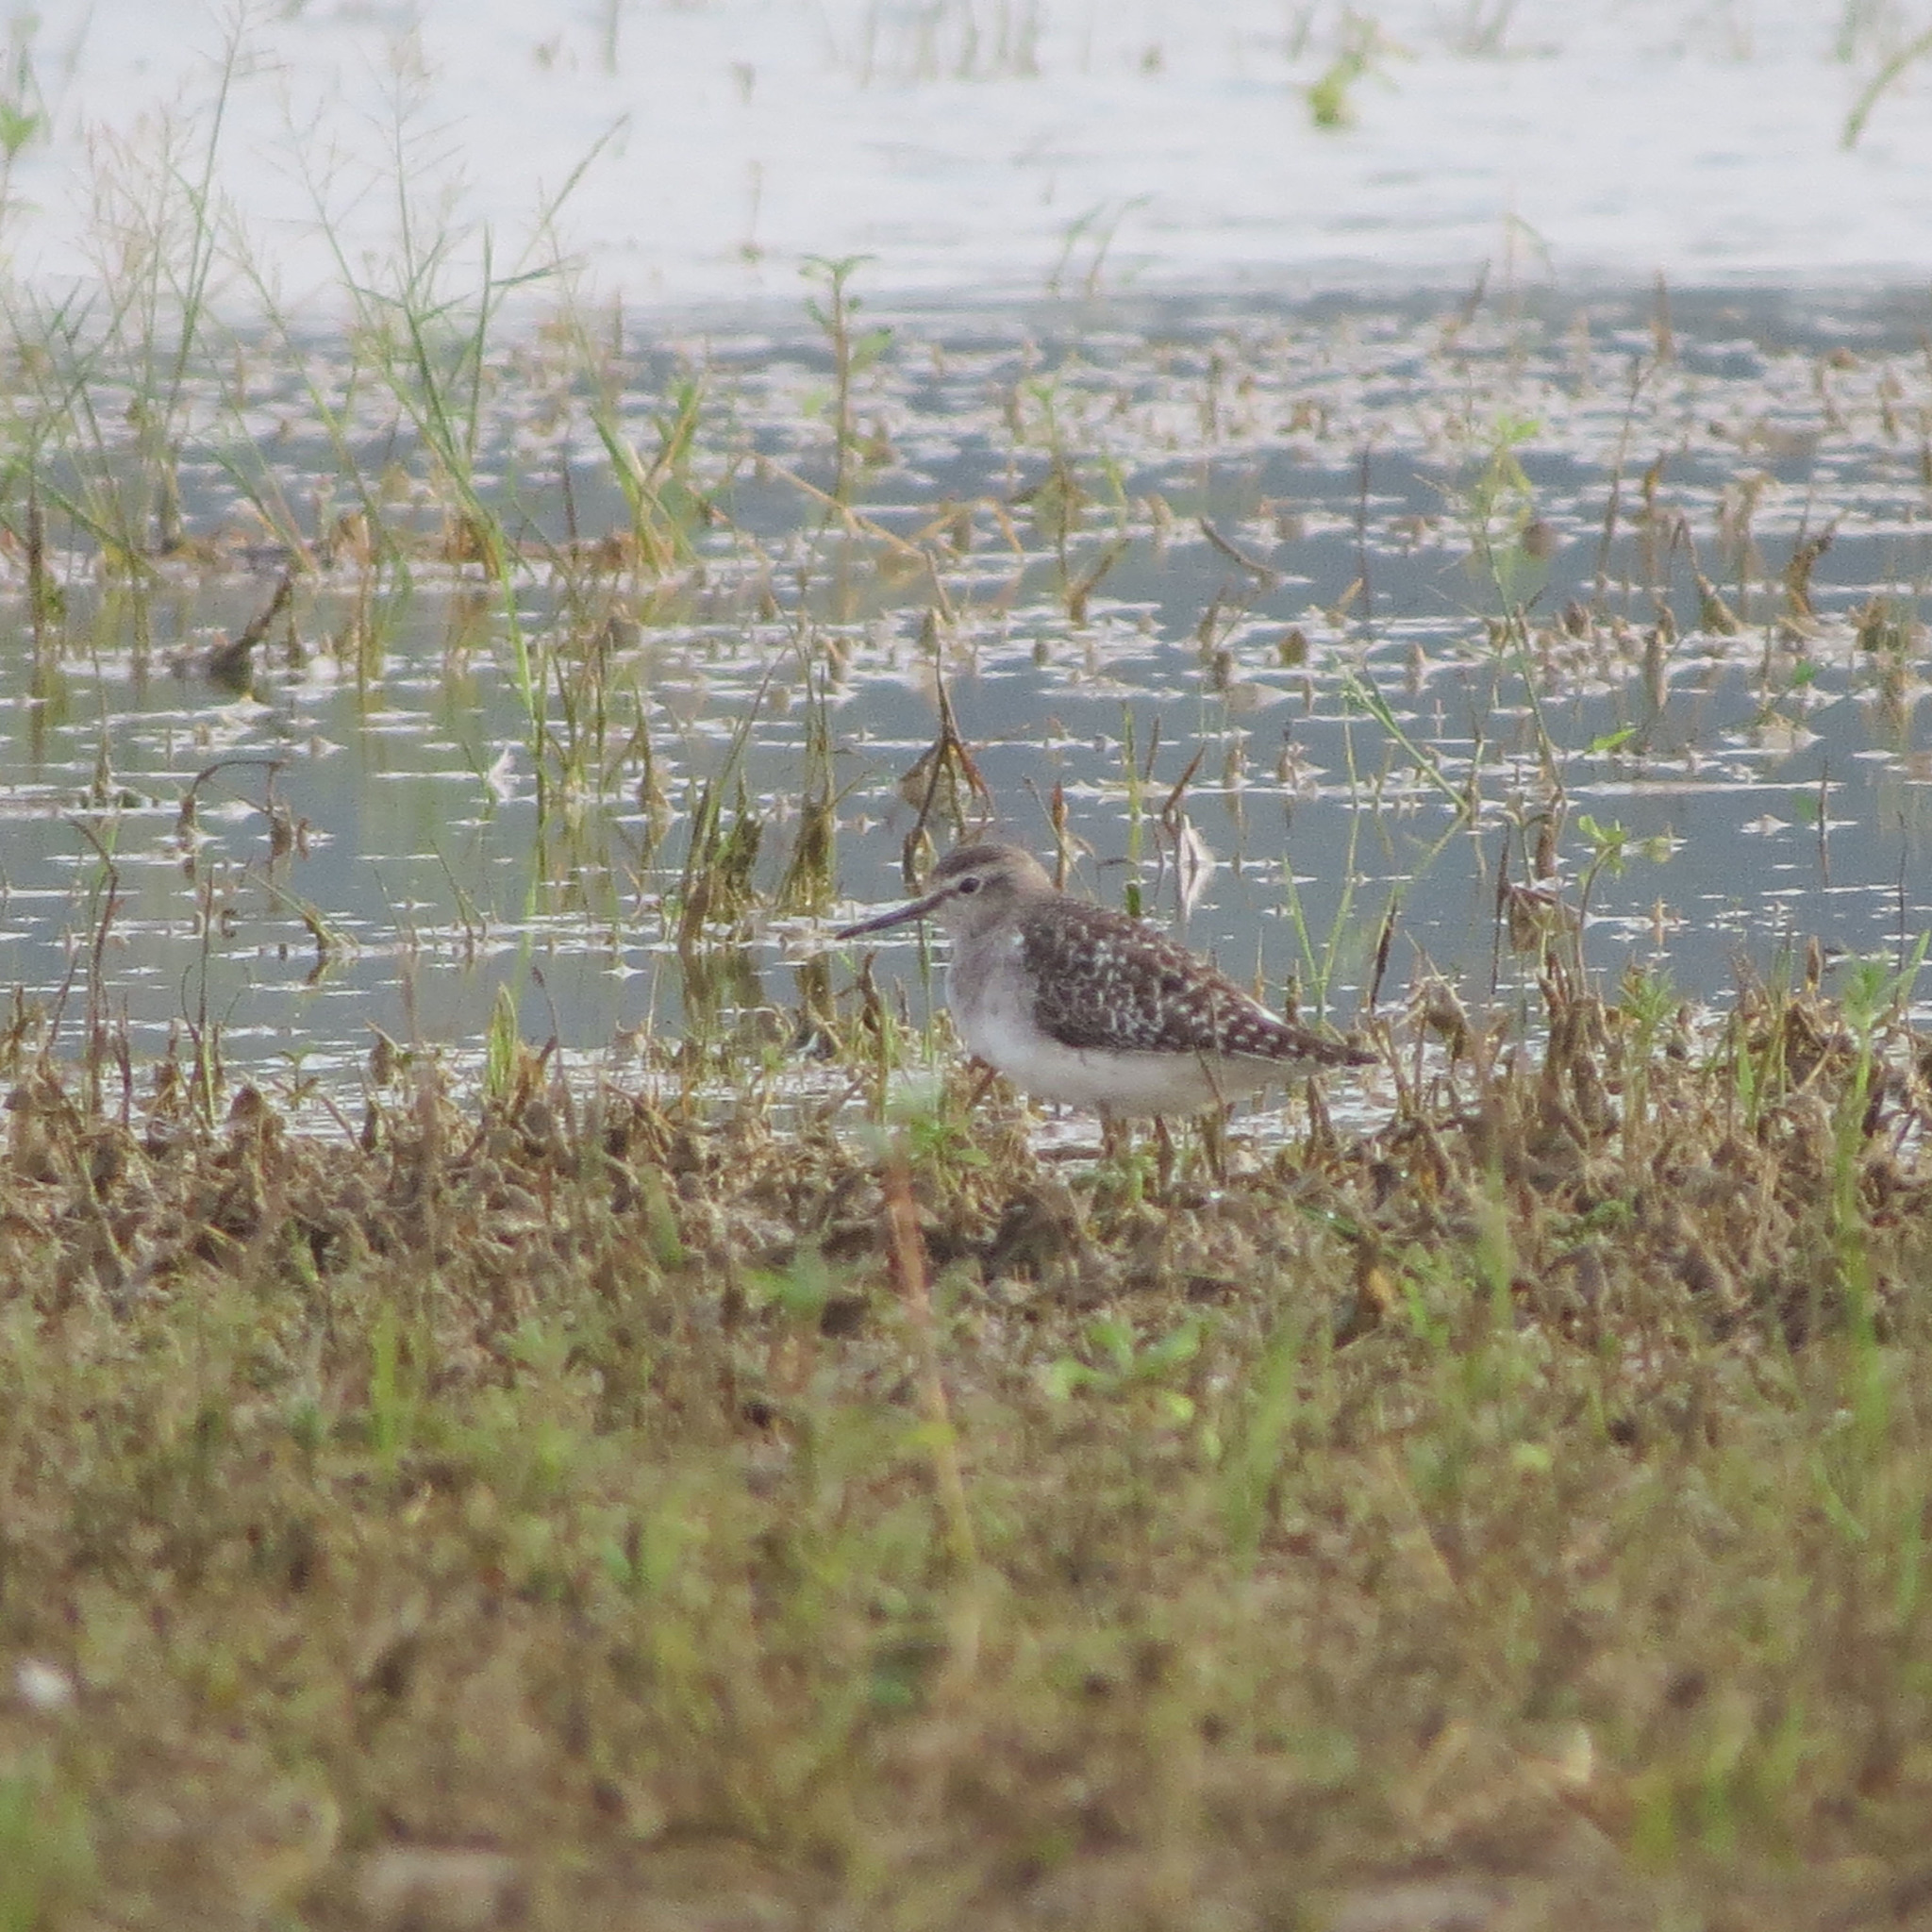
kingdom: Animalia
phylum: Chordata
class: Aves
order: Charadriiformes
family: Scolopacidae
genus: Tringa
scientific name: Tringa glareola
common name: Wood sandpiper
